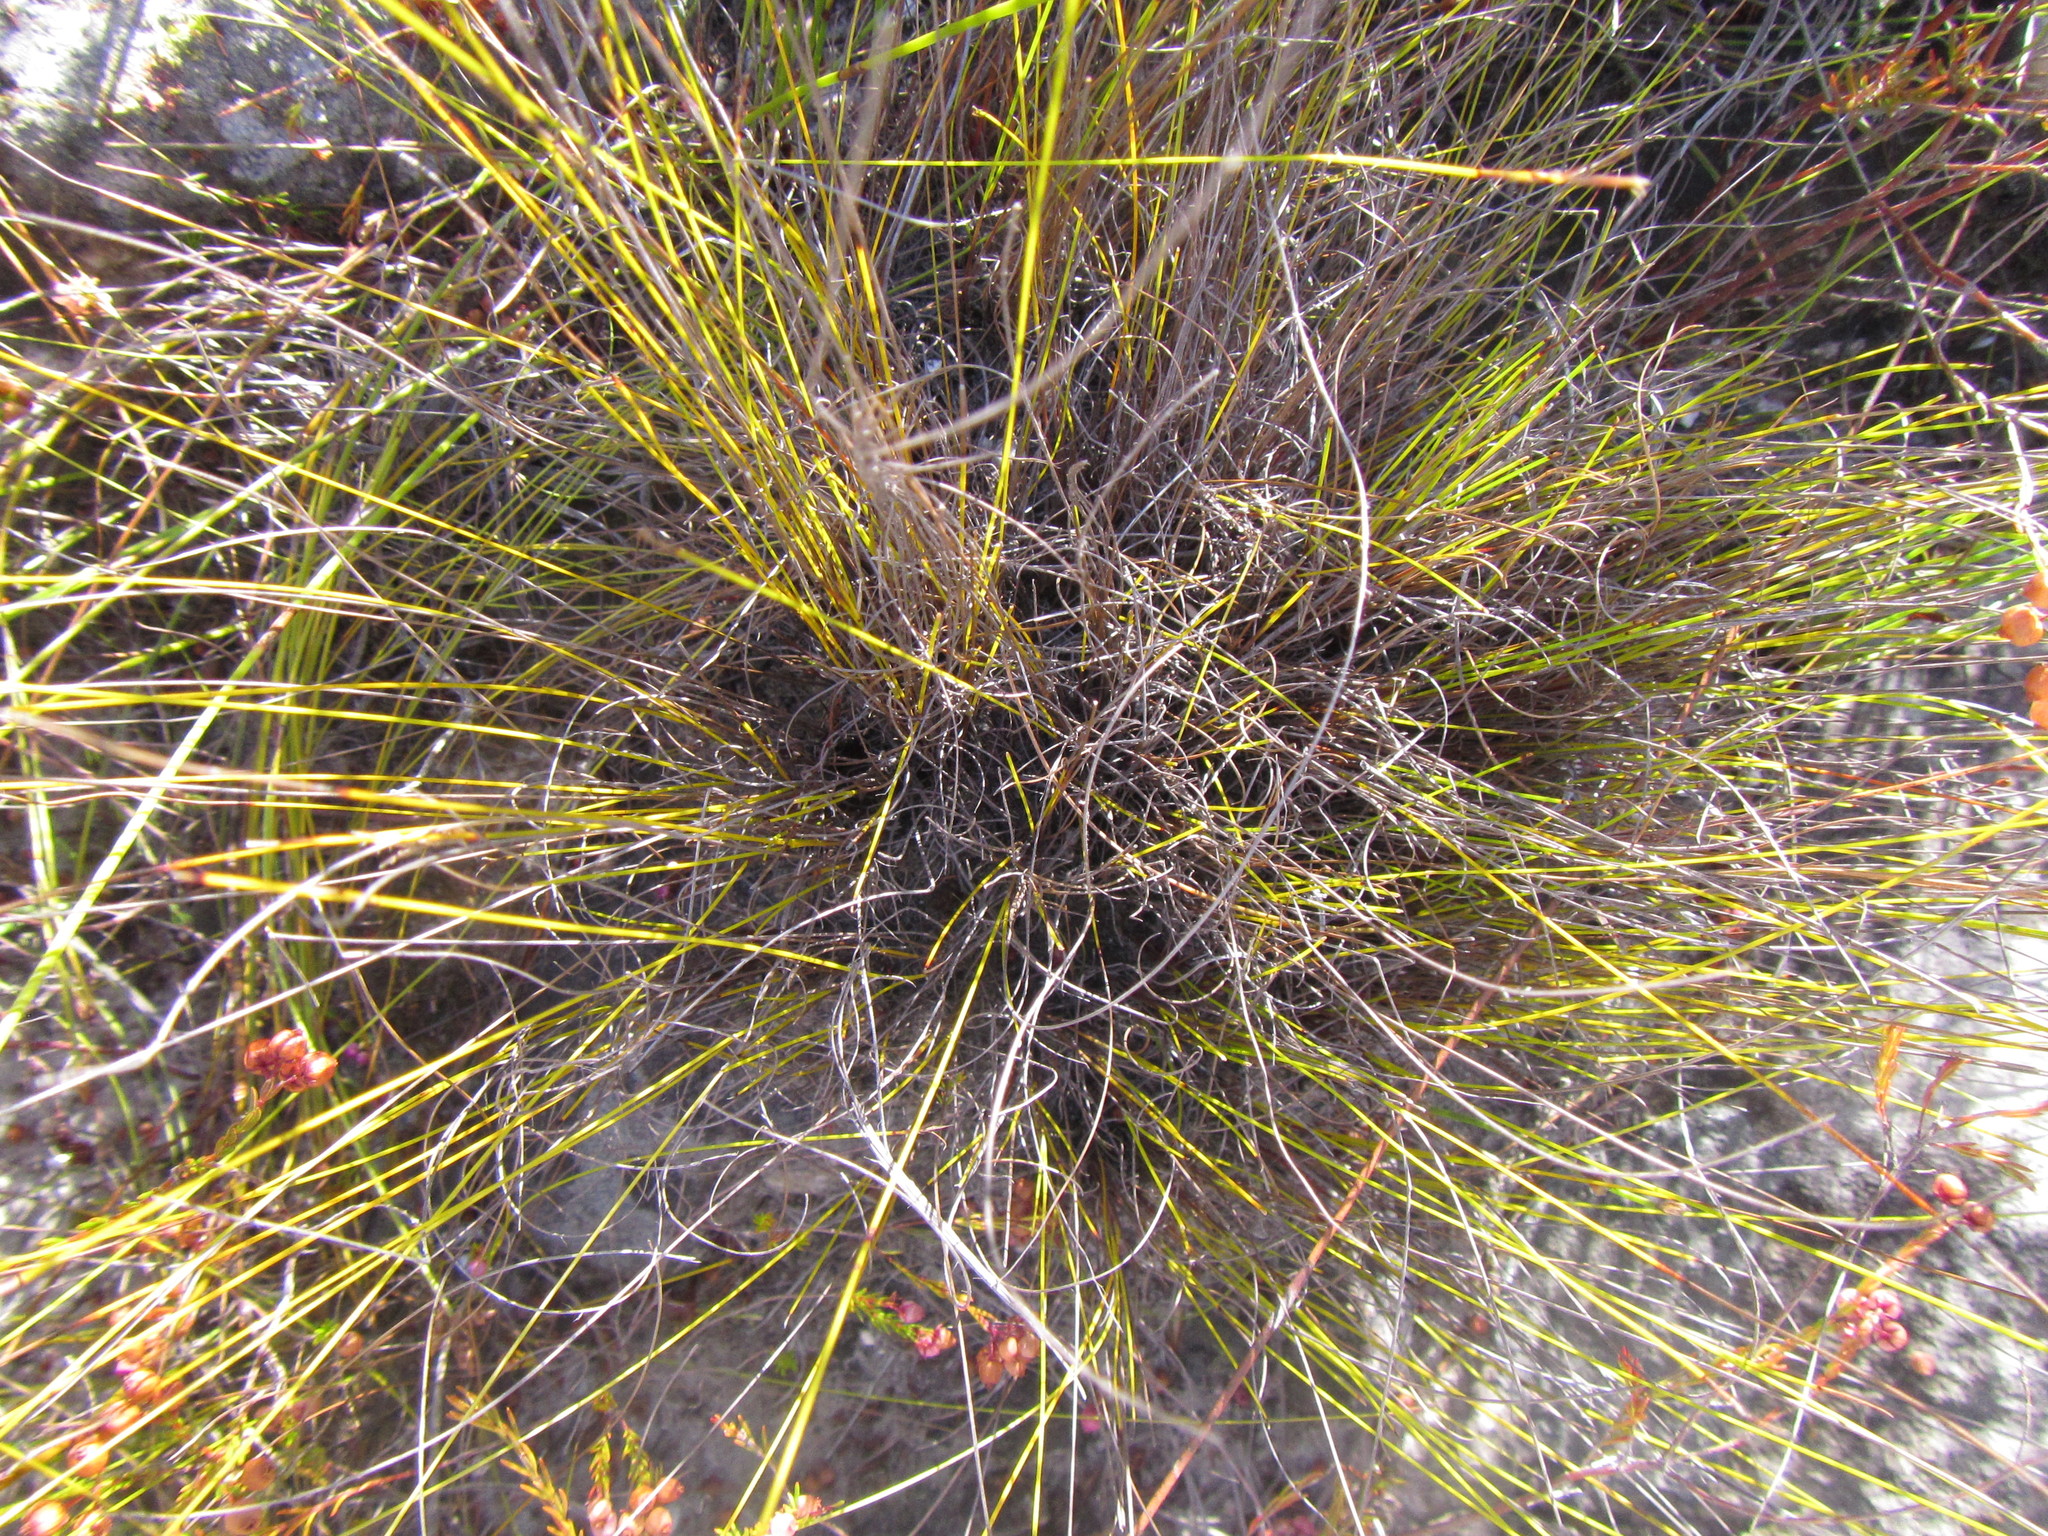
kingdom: Plantae
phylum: Tracheophyta
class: Liliopsida
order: Poales
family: Cyperaceae
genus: Schoenus
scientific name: Schoenus exilis
